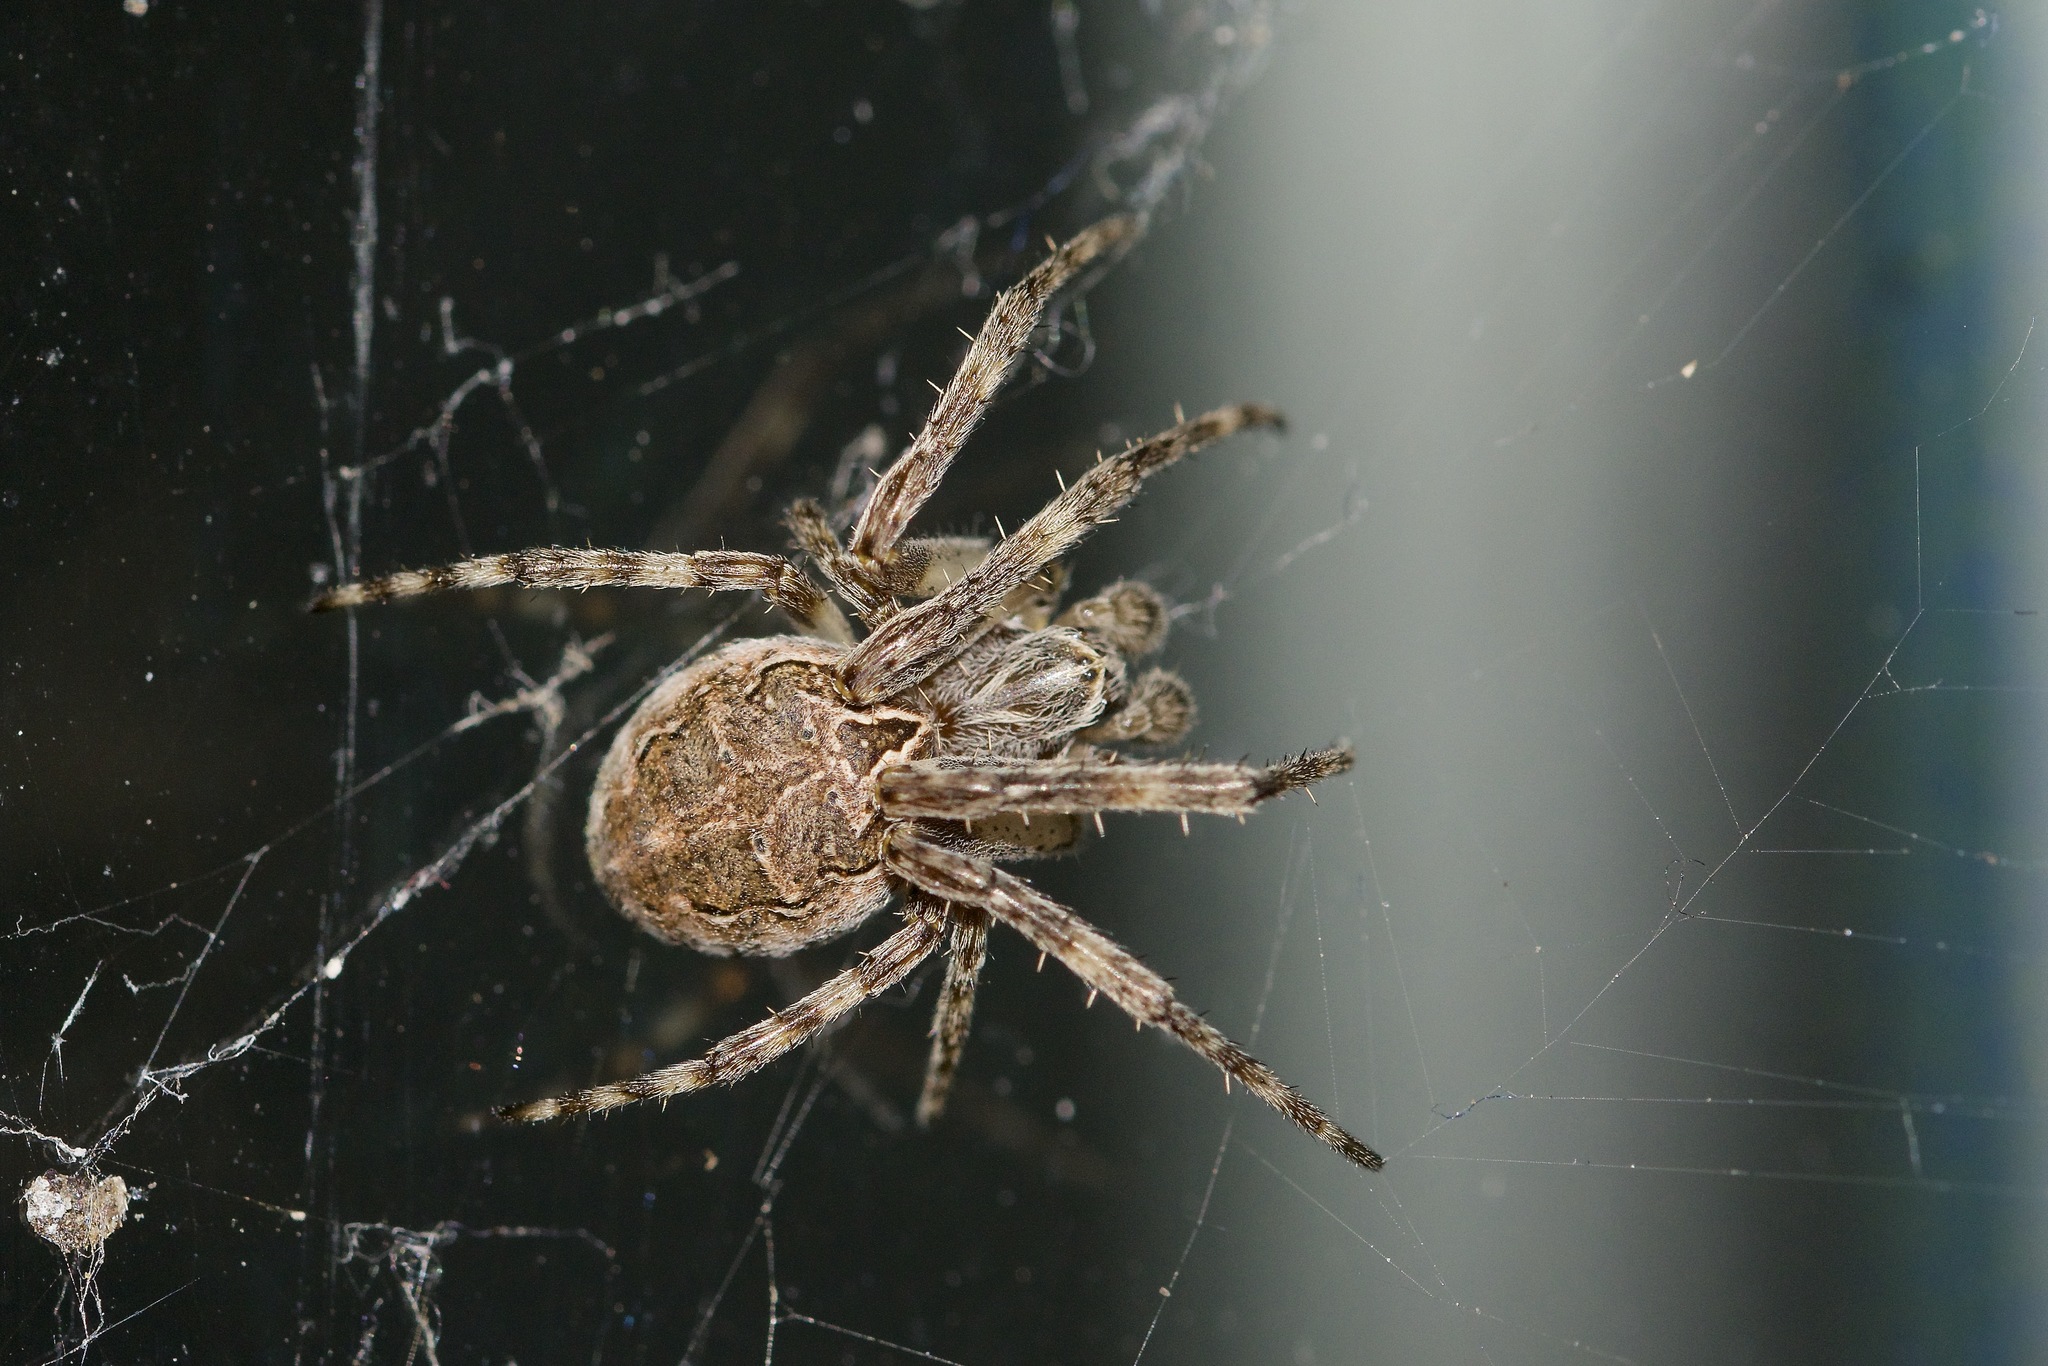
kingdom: Animalia
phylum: Arthropoda
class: Arachnida
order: Araneae
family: Araneidae
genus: Larinioides
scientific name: Larinioides sclopetarius
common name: Bridge orbweaver
